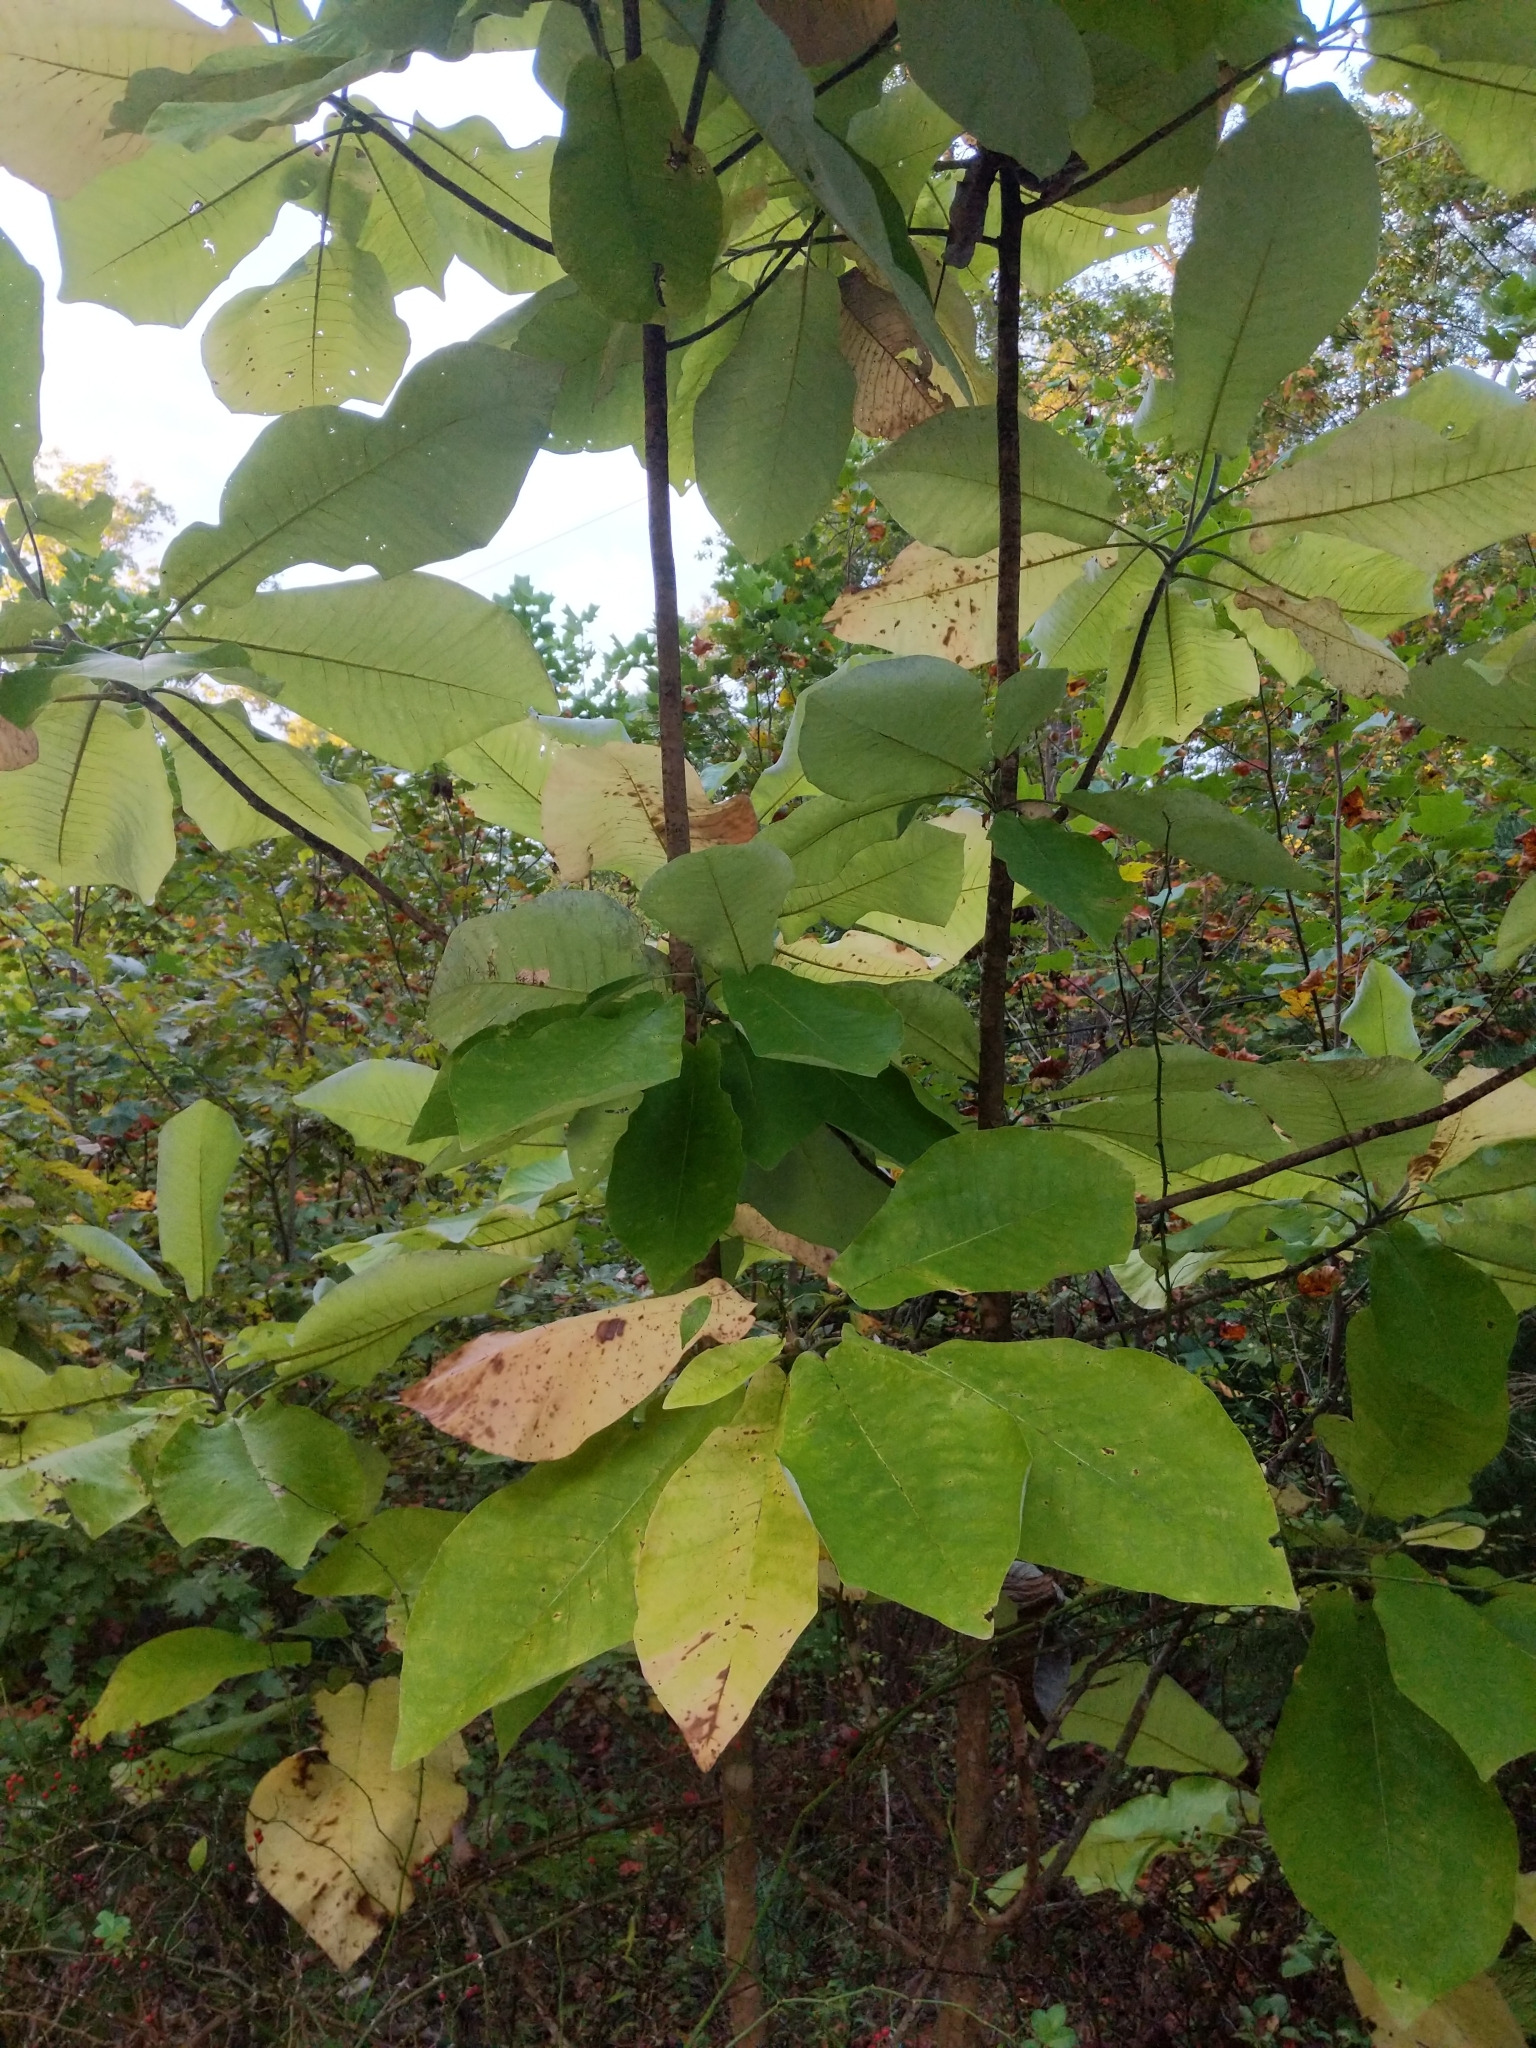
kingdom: Plantae
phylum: Tracheophyta
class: Magnoliopsida
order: Magnoliales
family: Magnoliaceae
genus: Magnolia
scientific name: Magnolia macrophylla
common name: Big-leaf magnolia
